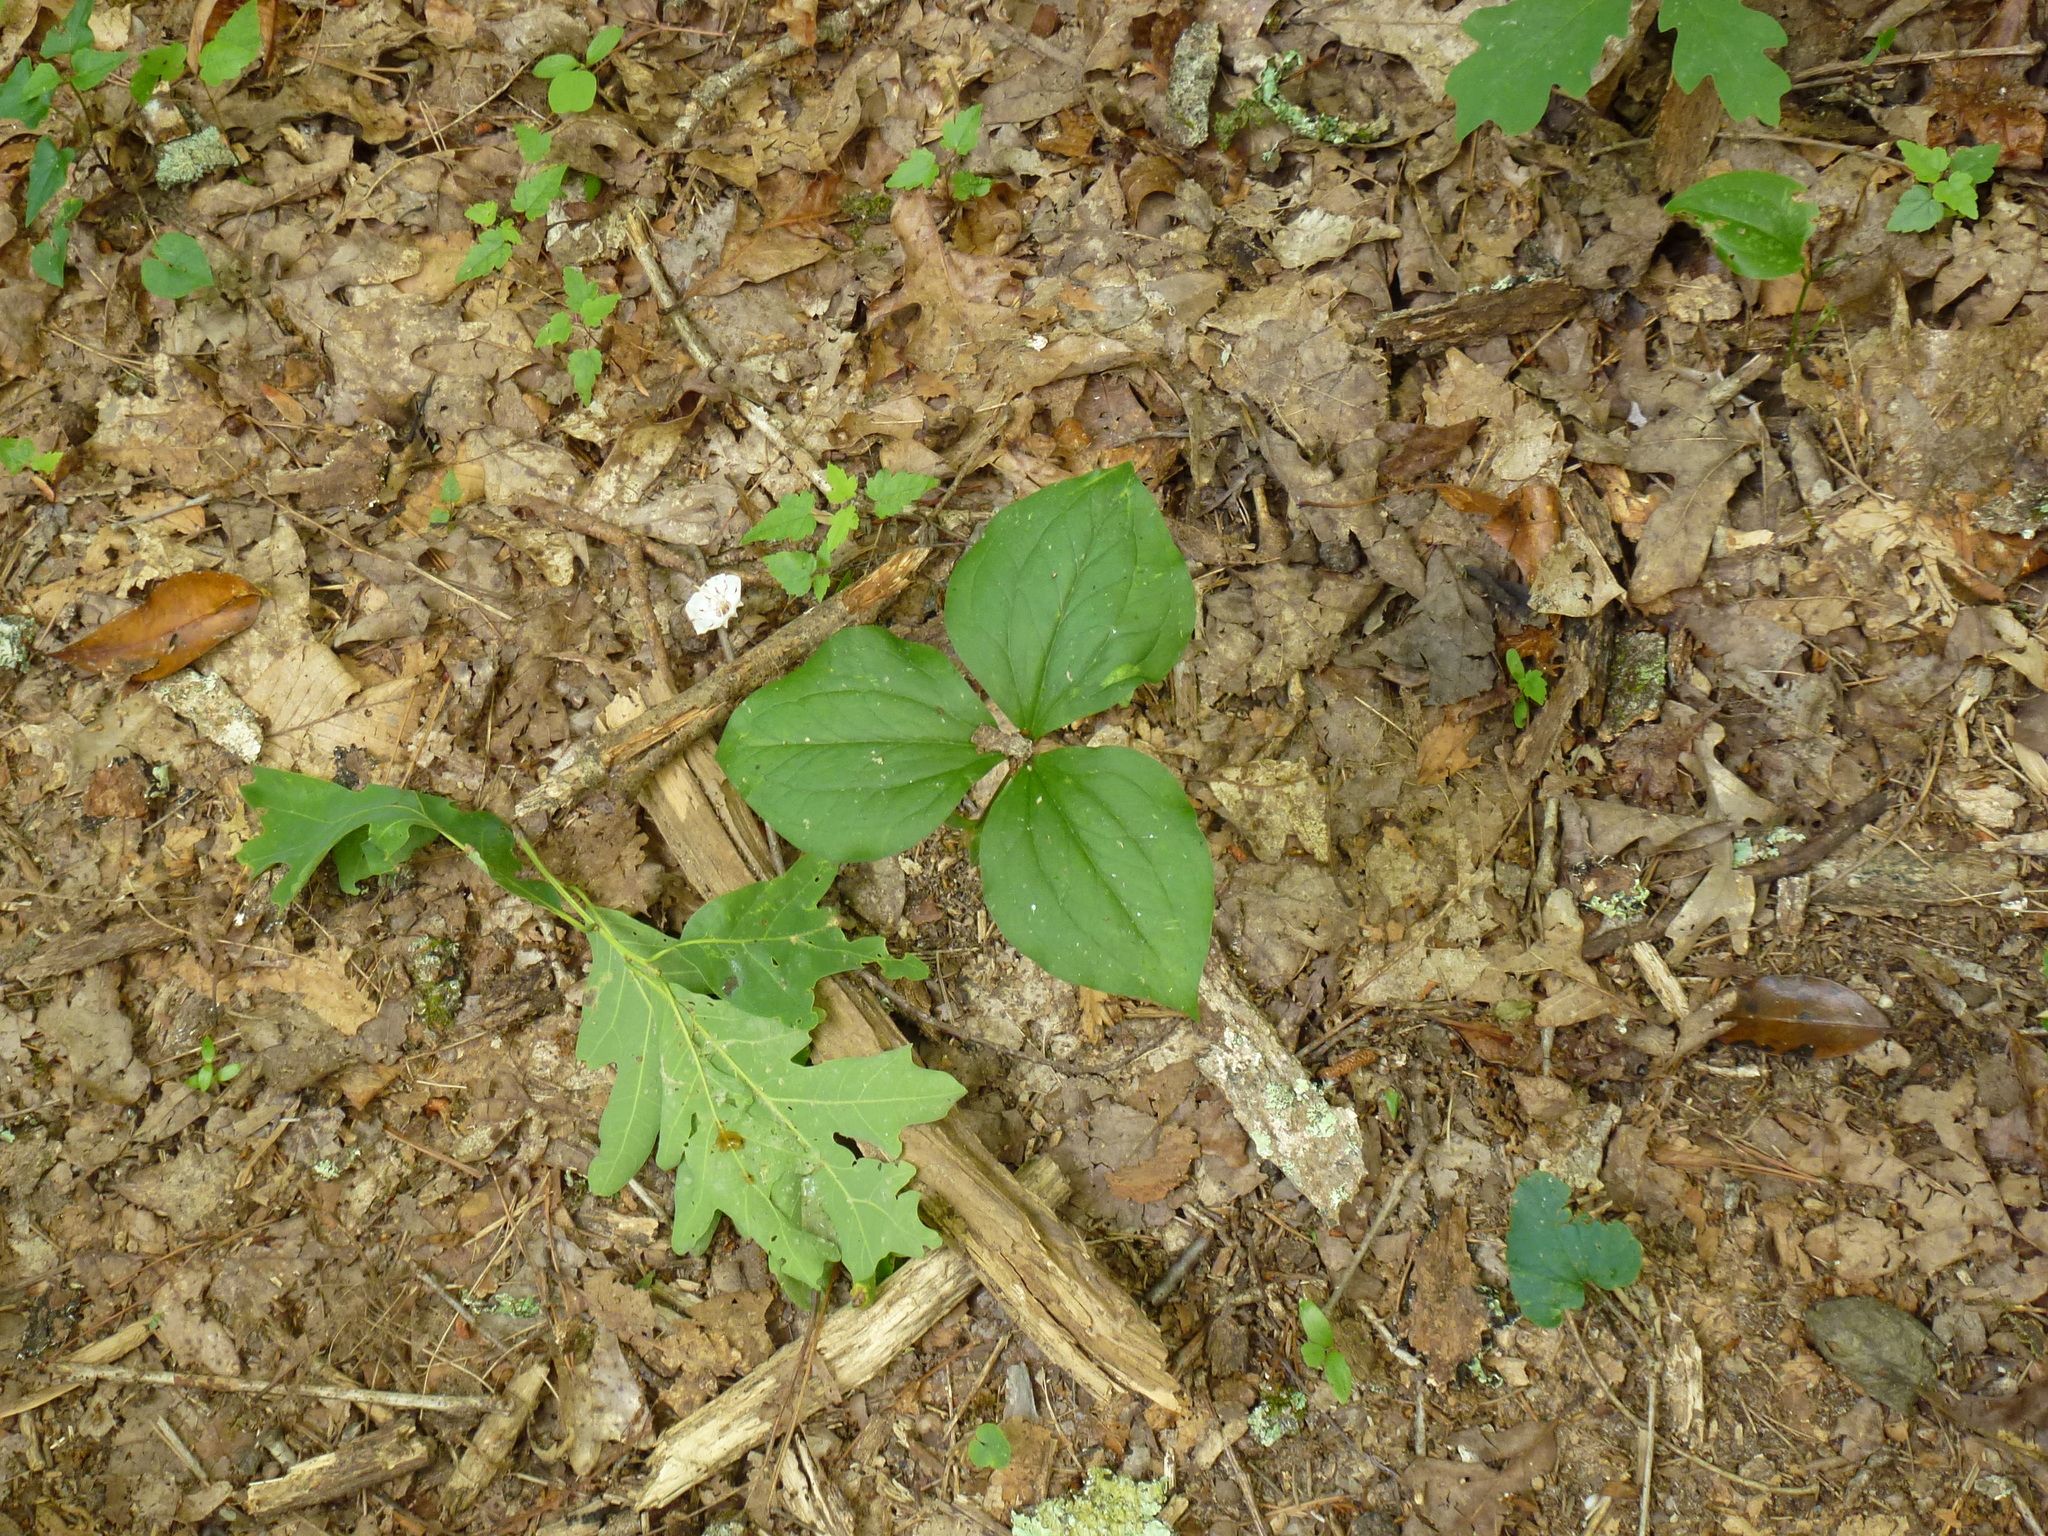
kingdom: Plantae
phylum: Tracheophyta
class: Liliopsida
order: Liliales
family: Melanthiaceae
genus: Trillium
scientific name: Trillium catesbaei
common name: Bashful trillium
